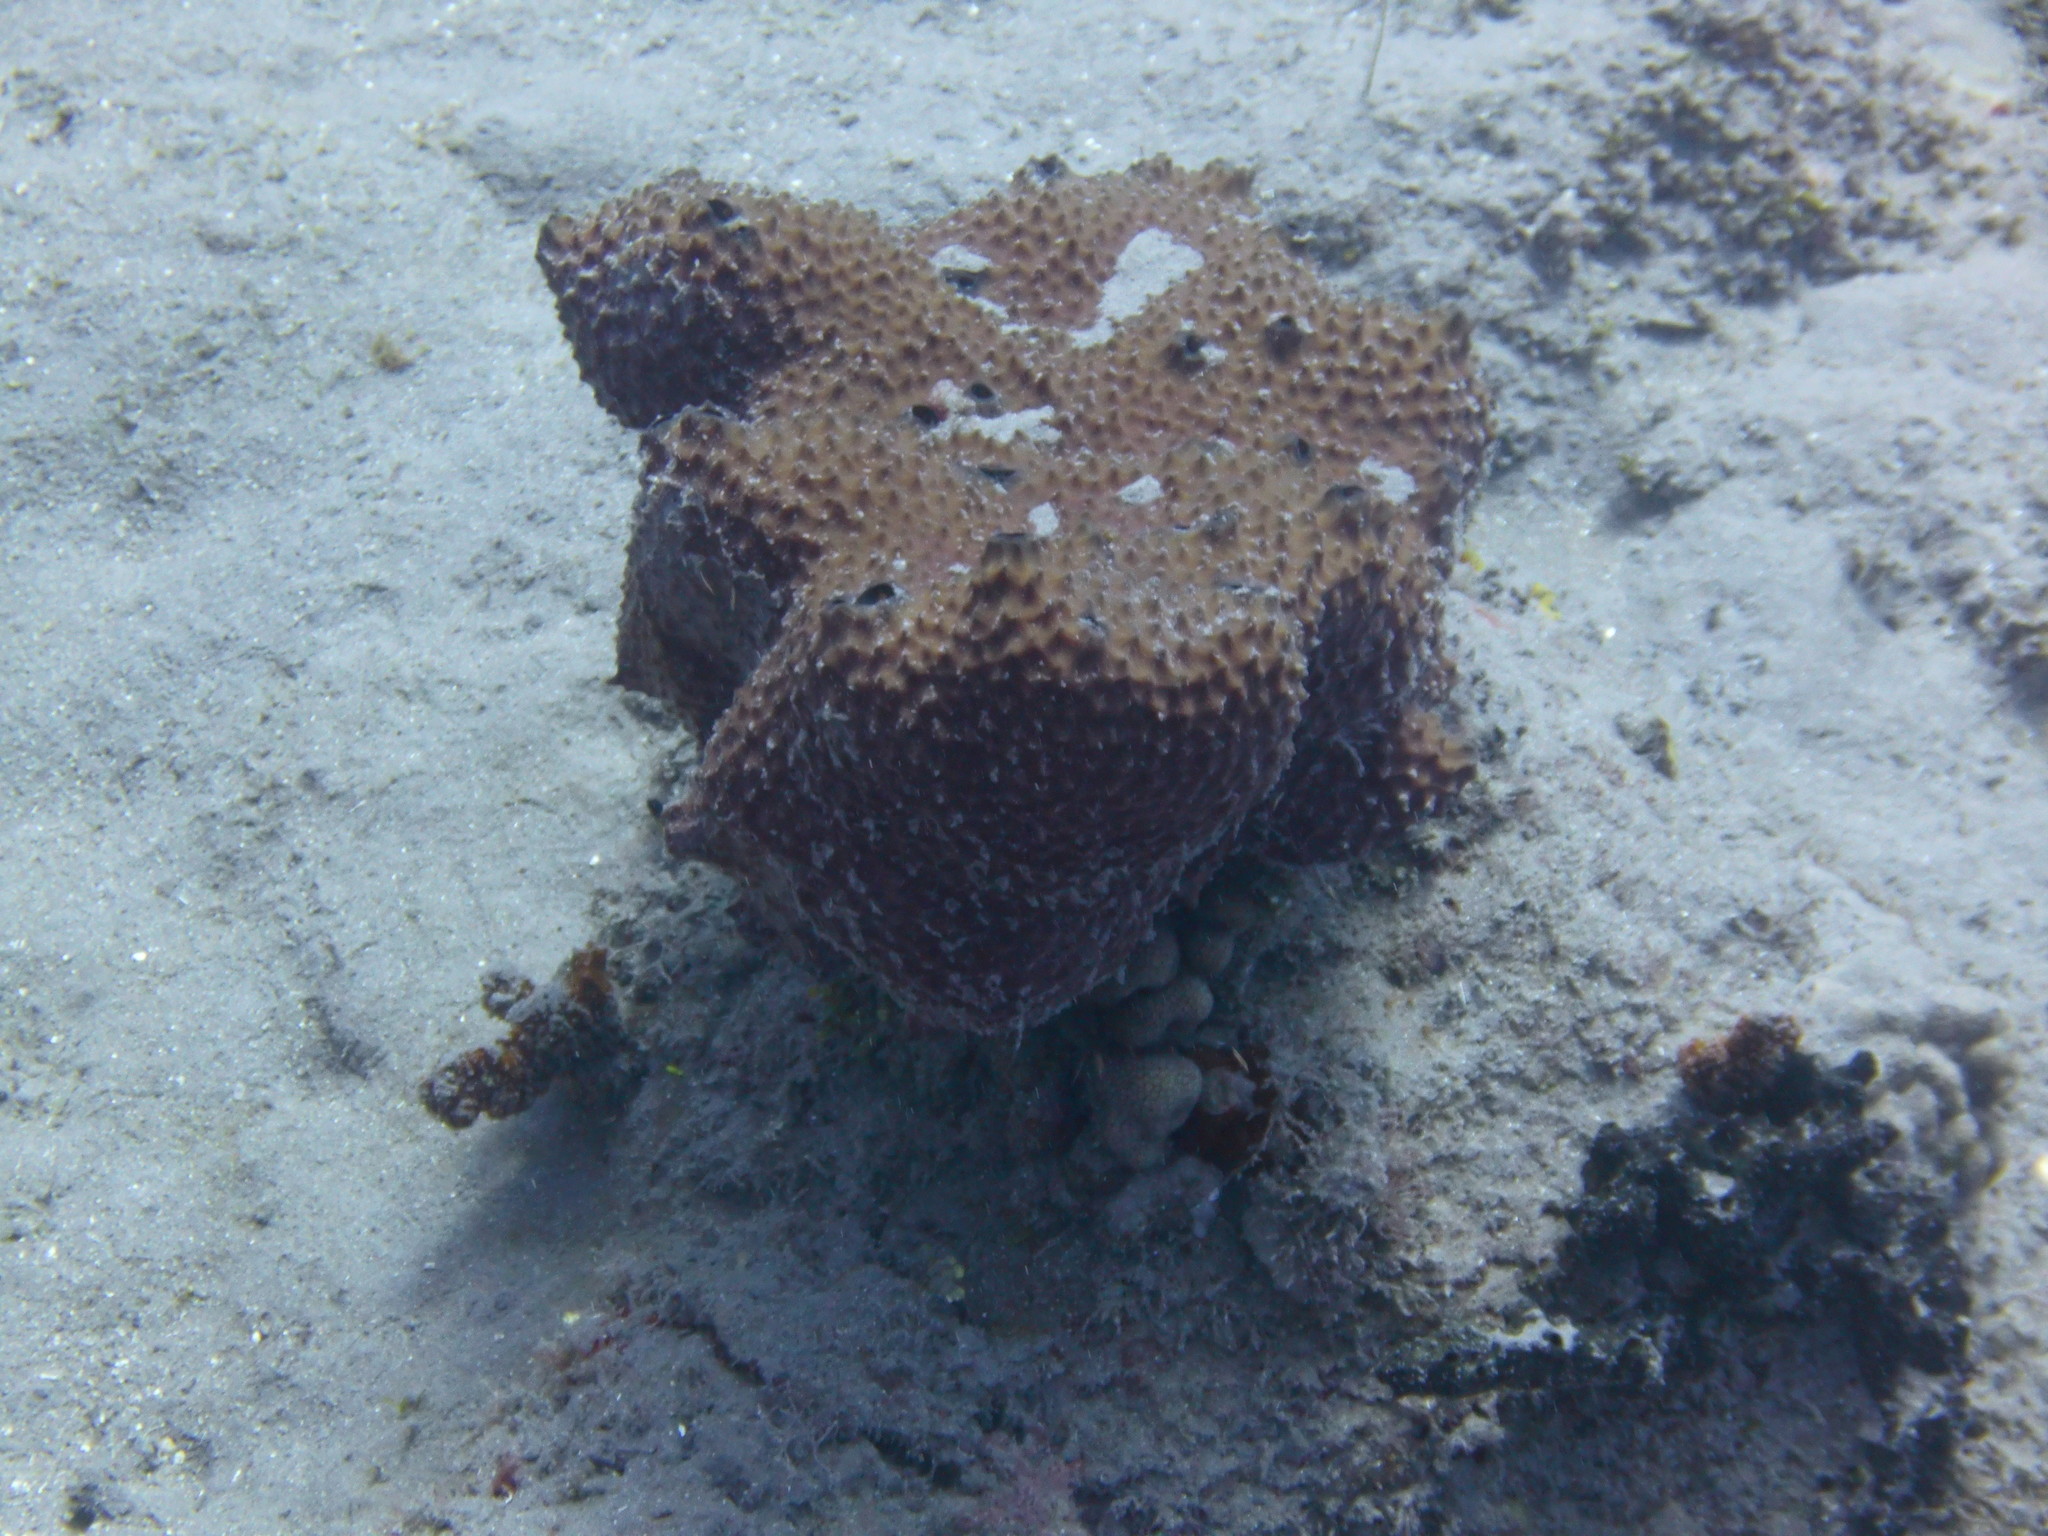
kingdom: Animalia
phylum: Porifera
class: Demospongiae
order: Dictyoceratida
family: Irciniidae
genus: Ircinia
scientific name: Ircinia felix
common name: Stinker sponge
